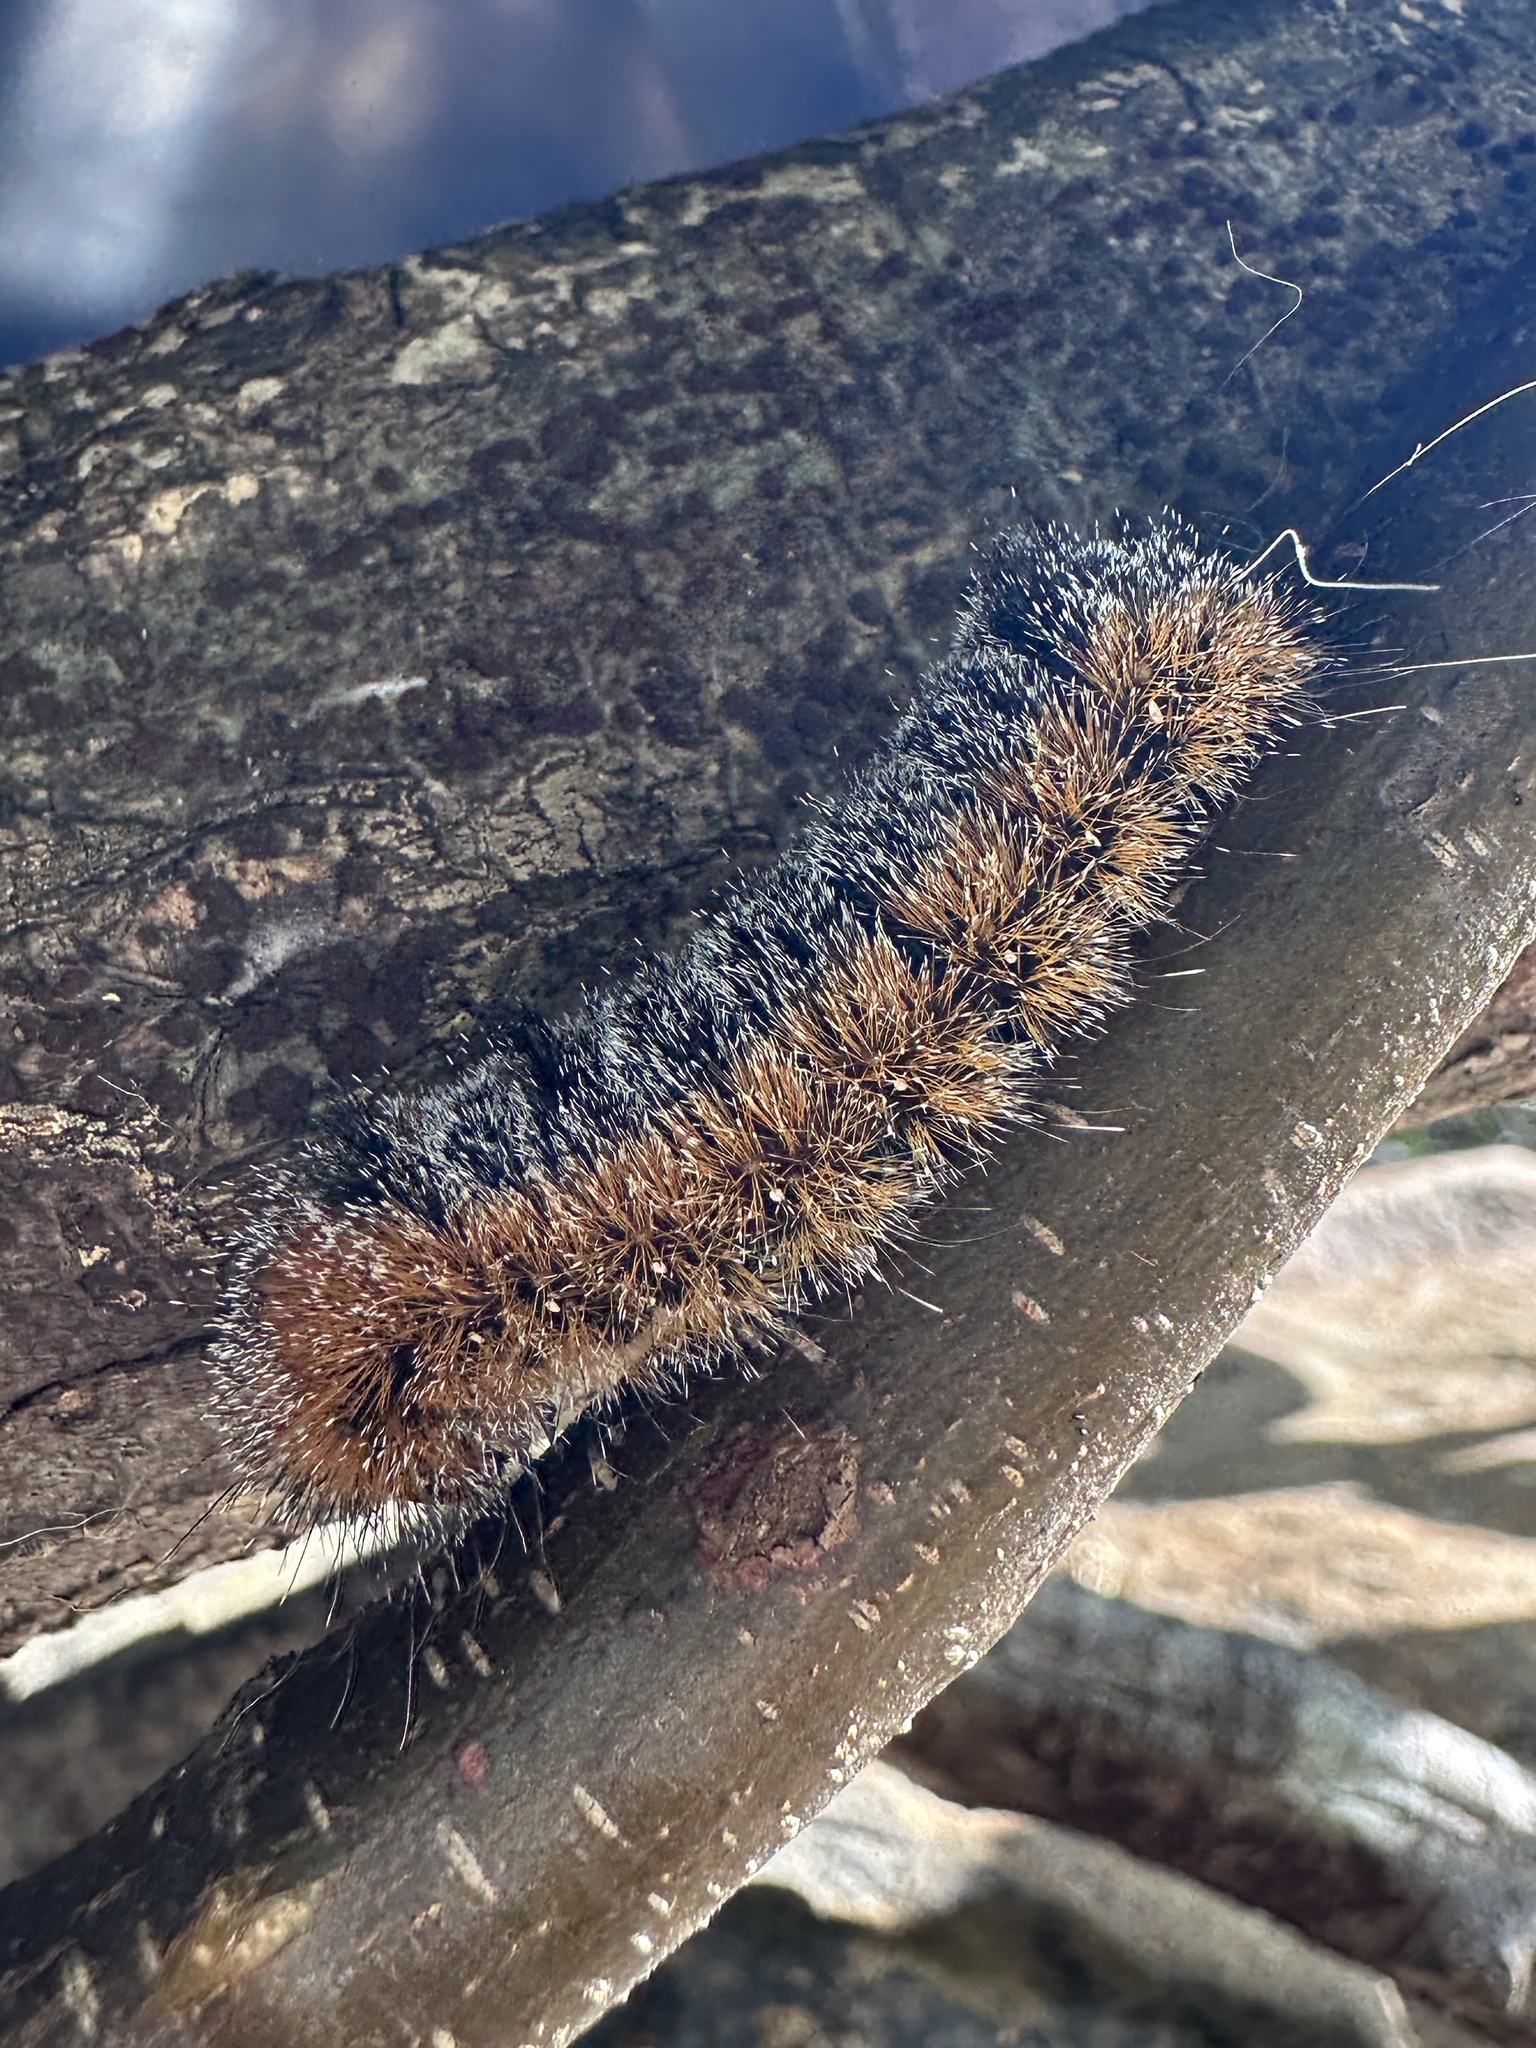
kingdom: Animalia
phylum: Arthropoda
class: Insecta
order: Lepidoptera
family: Noctuidae
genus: Acronicta
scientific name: Acronicta hastulifera
